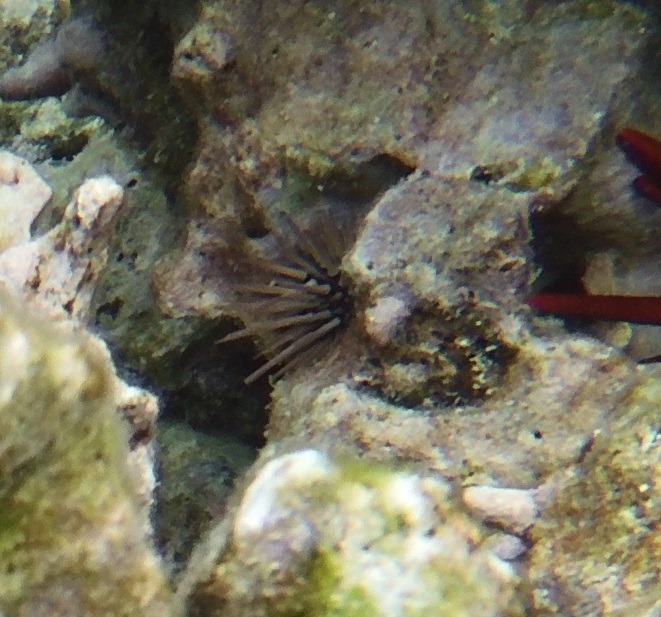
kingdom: Animalia
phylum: Echinodermata
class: Echinoidea
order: Camarodonta
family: Echinometridae
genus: Echinometra
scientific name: Echinometra mathaei
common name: Rock-boring urchin
